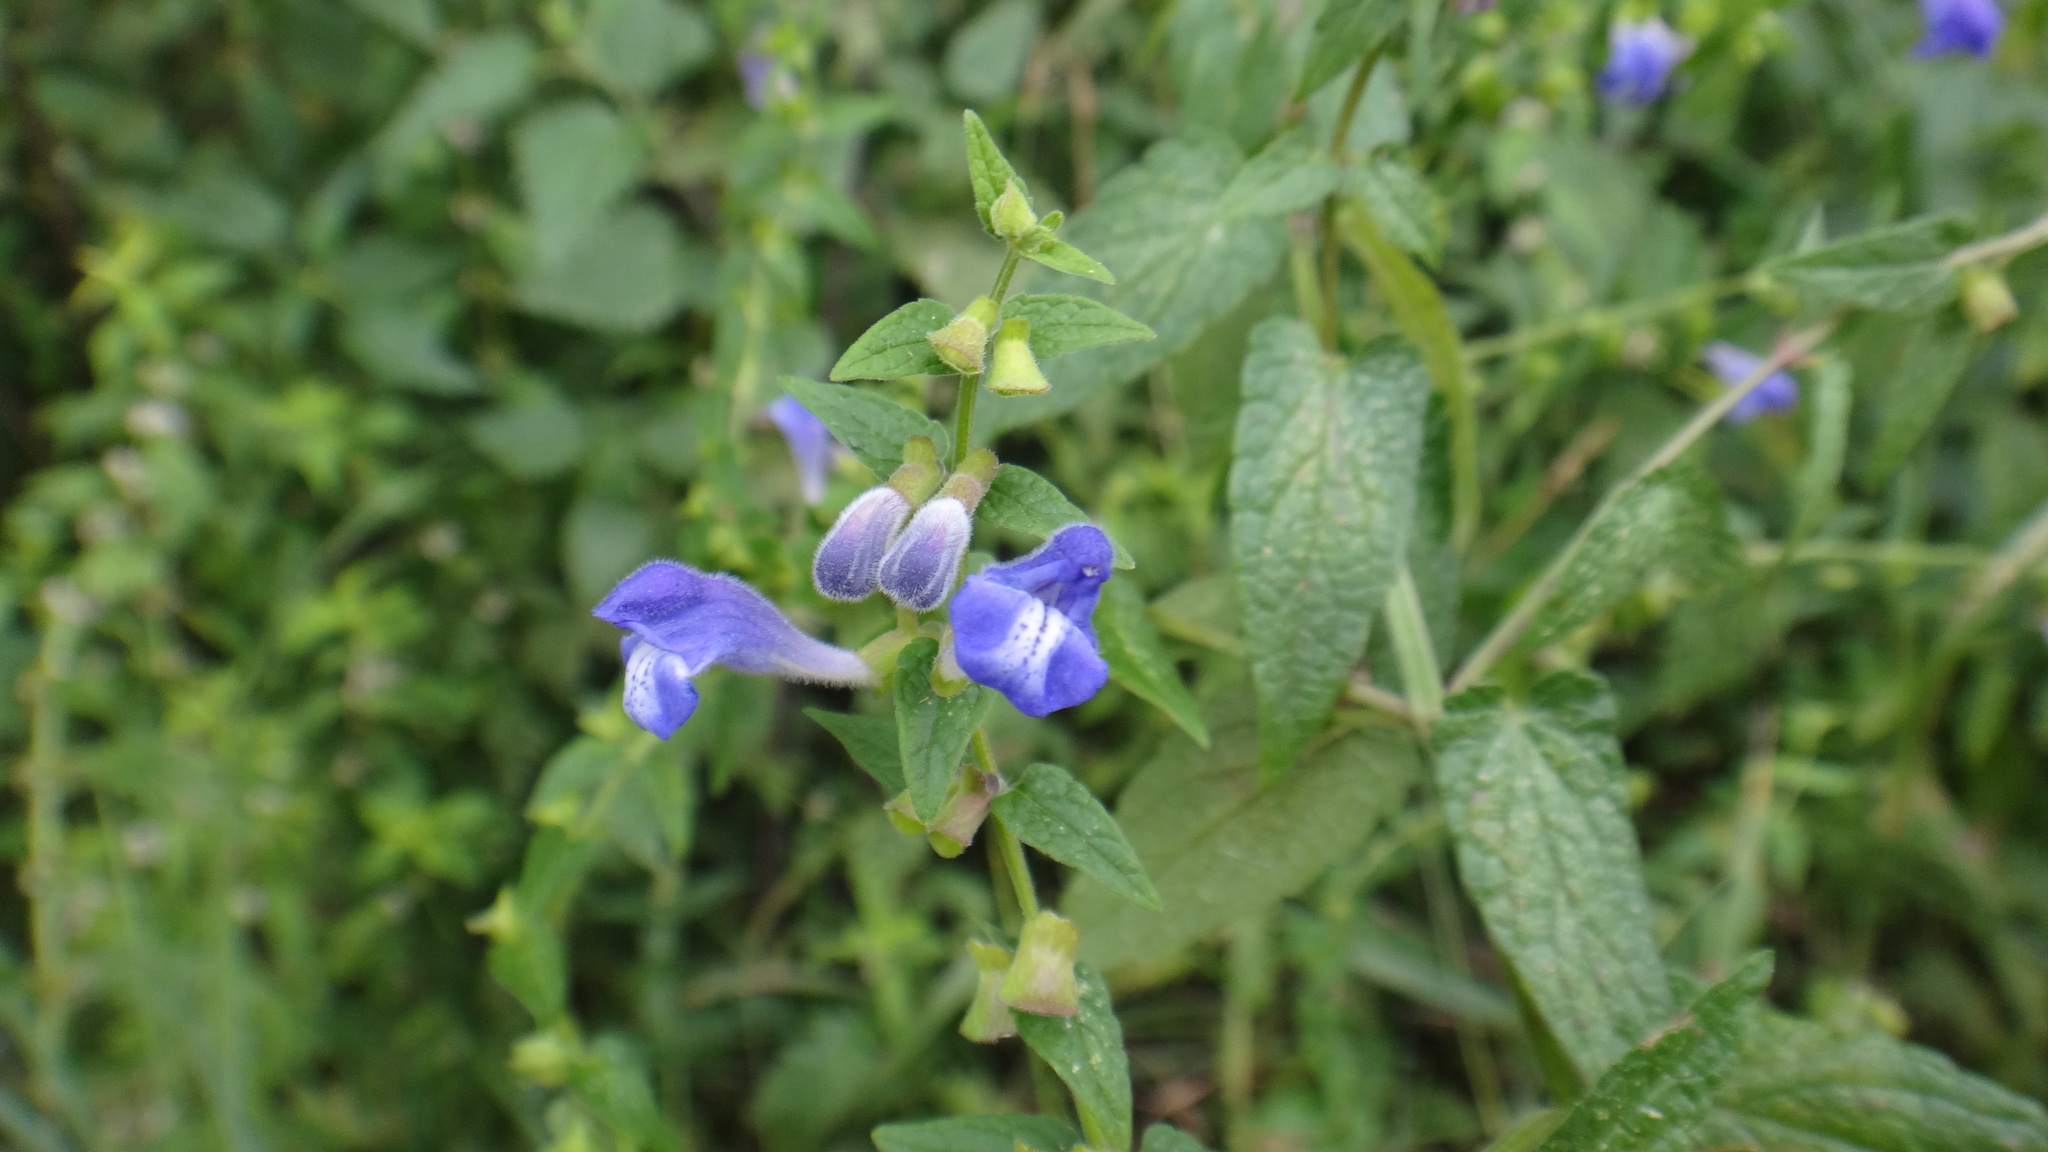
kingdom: Plantae
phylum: Tracheophyta
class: Magnoliopsida
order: Lamiales
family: Lamiaceae
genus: Scutellaria
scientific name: Scutellaria galericulata
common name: Skullcap
